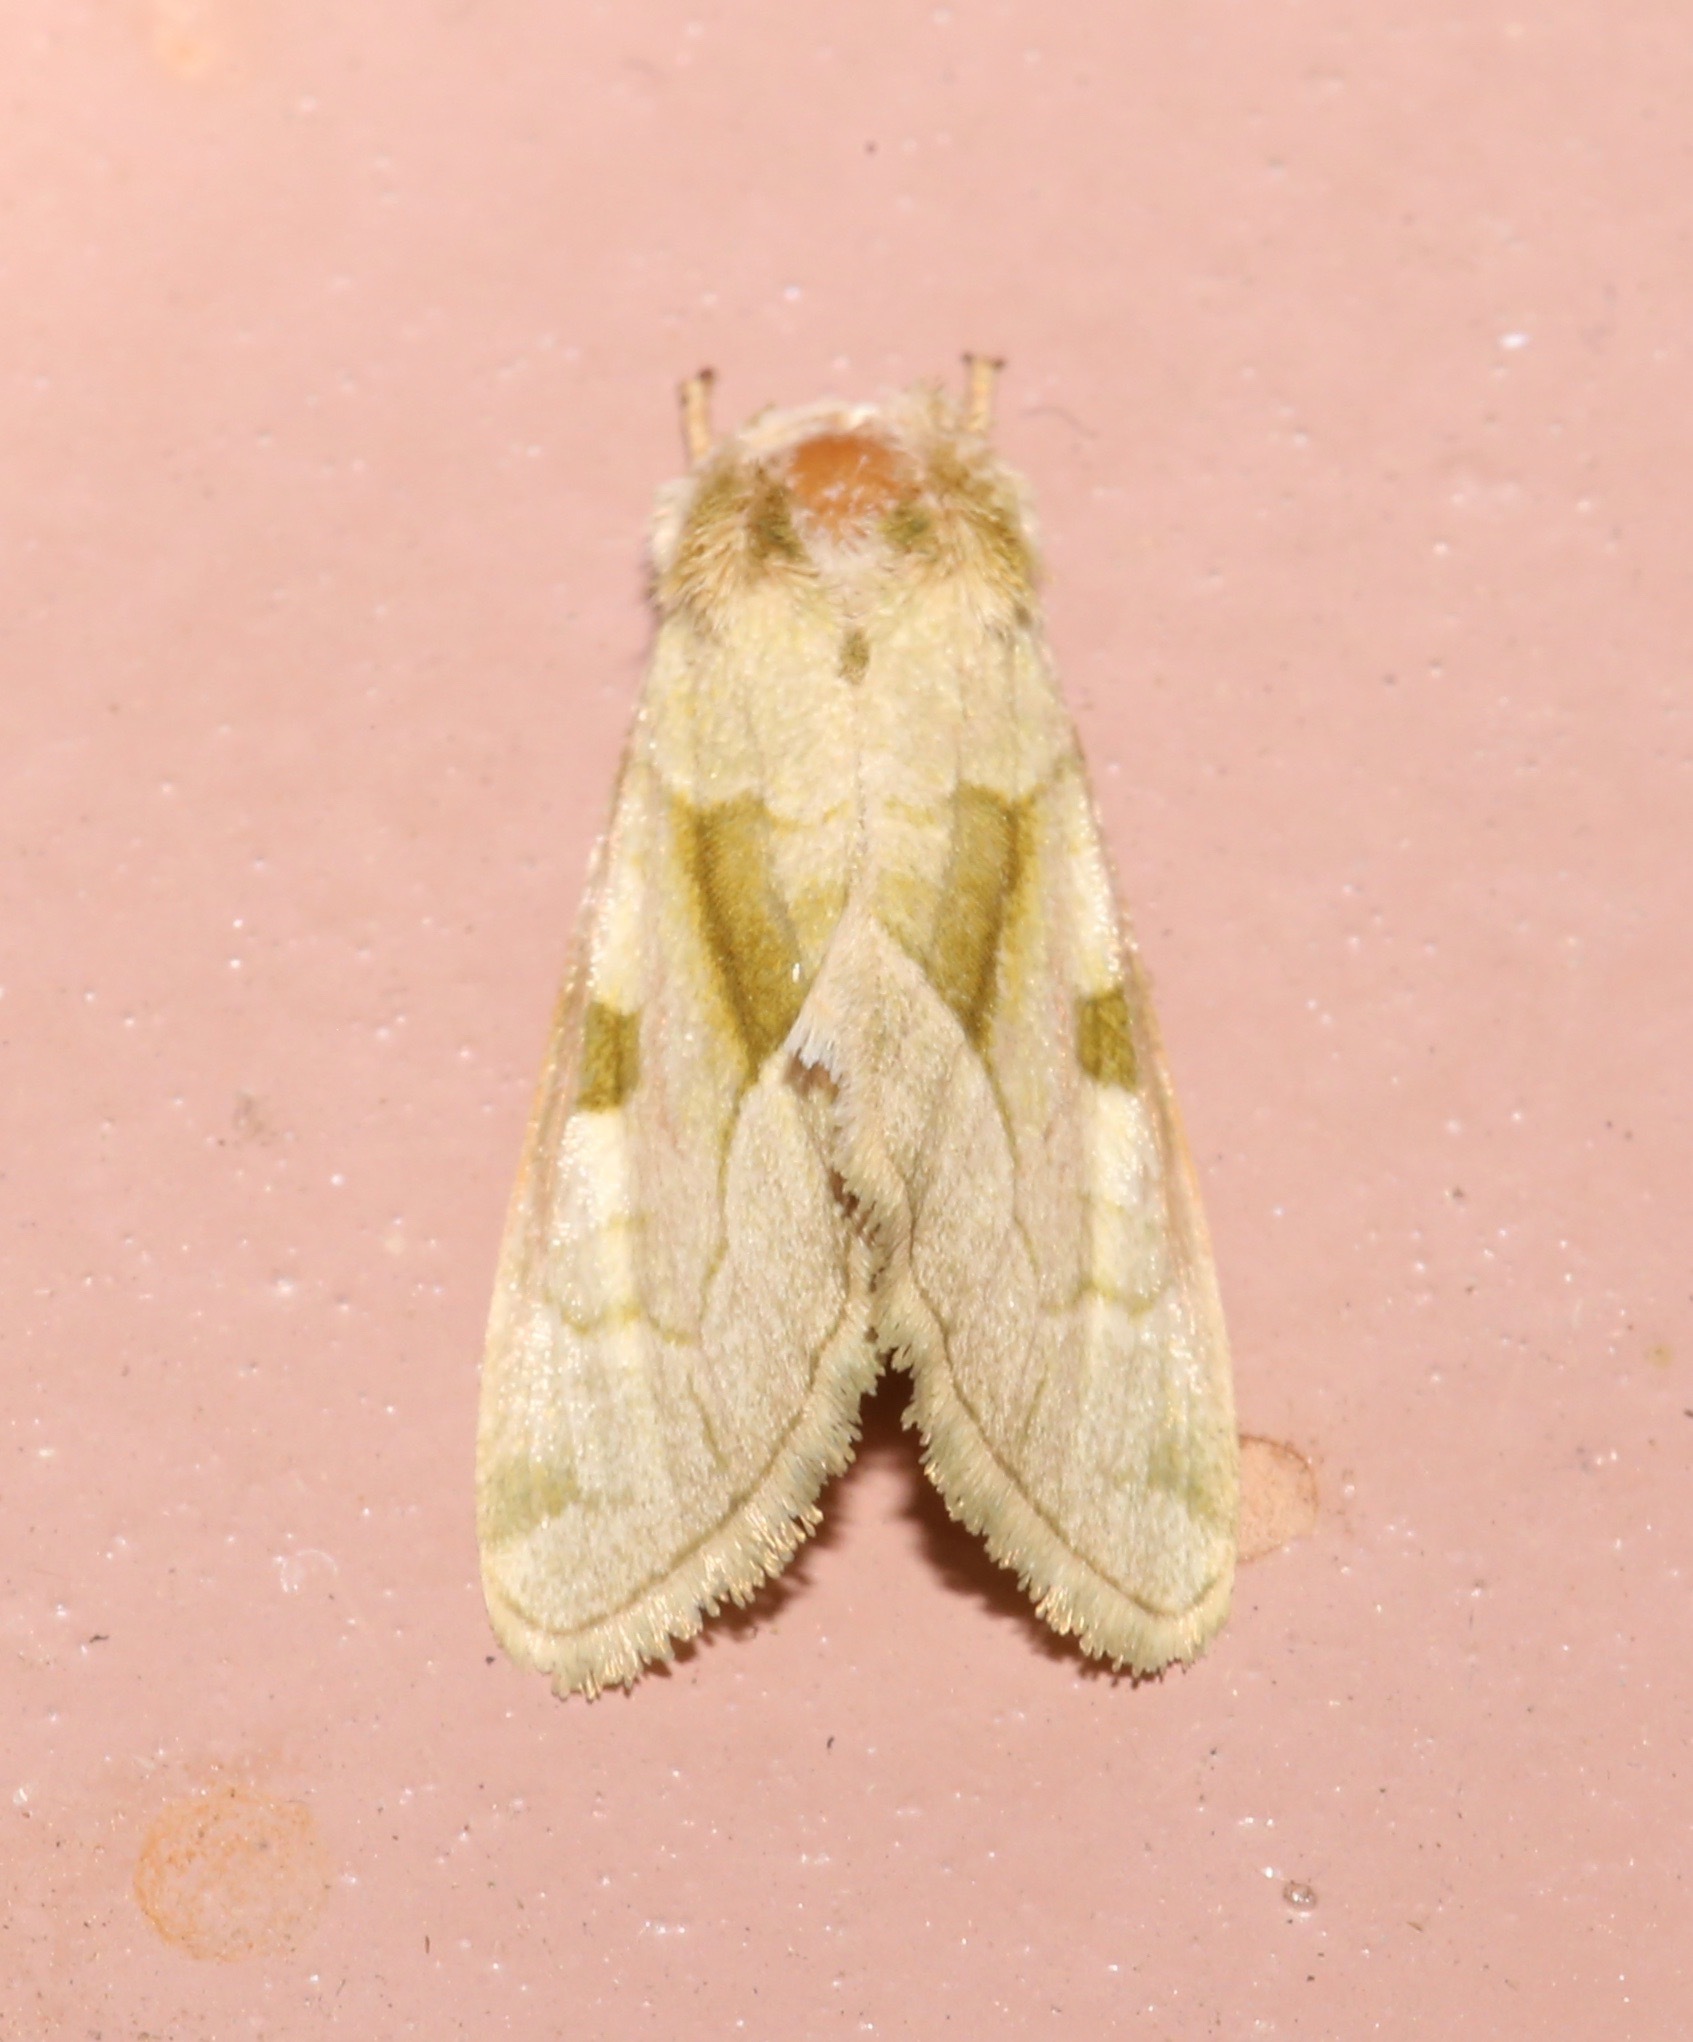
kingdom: Animalia
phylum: Arthropoda
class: Insecta
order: Lepidoptera
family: Noctuidae
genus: Oslaria
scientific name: Oslaria viridifera
